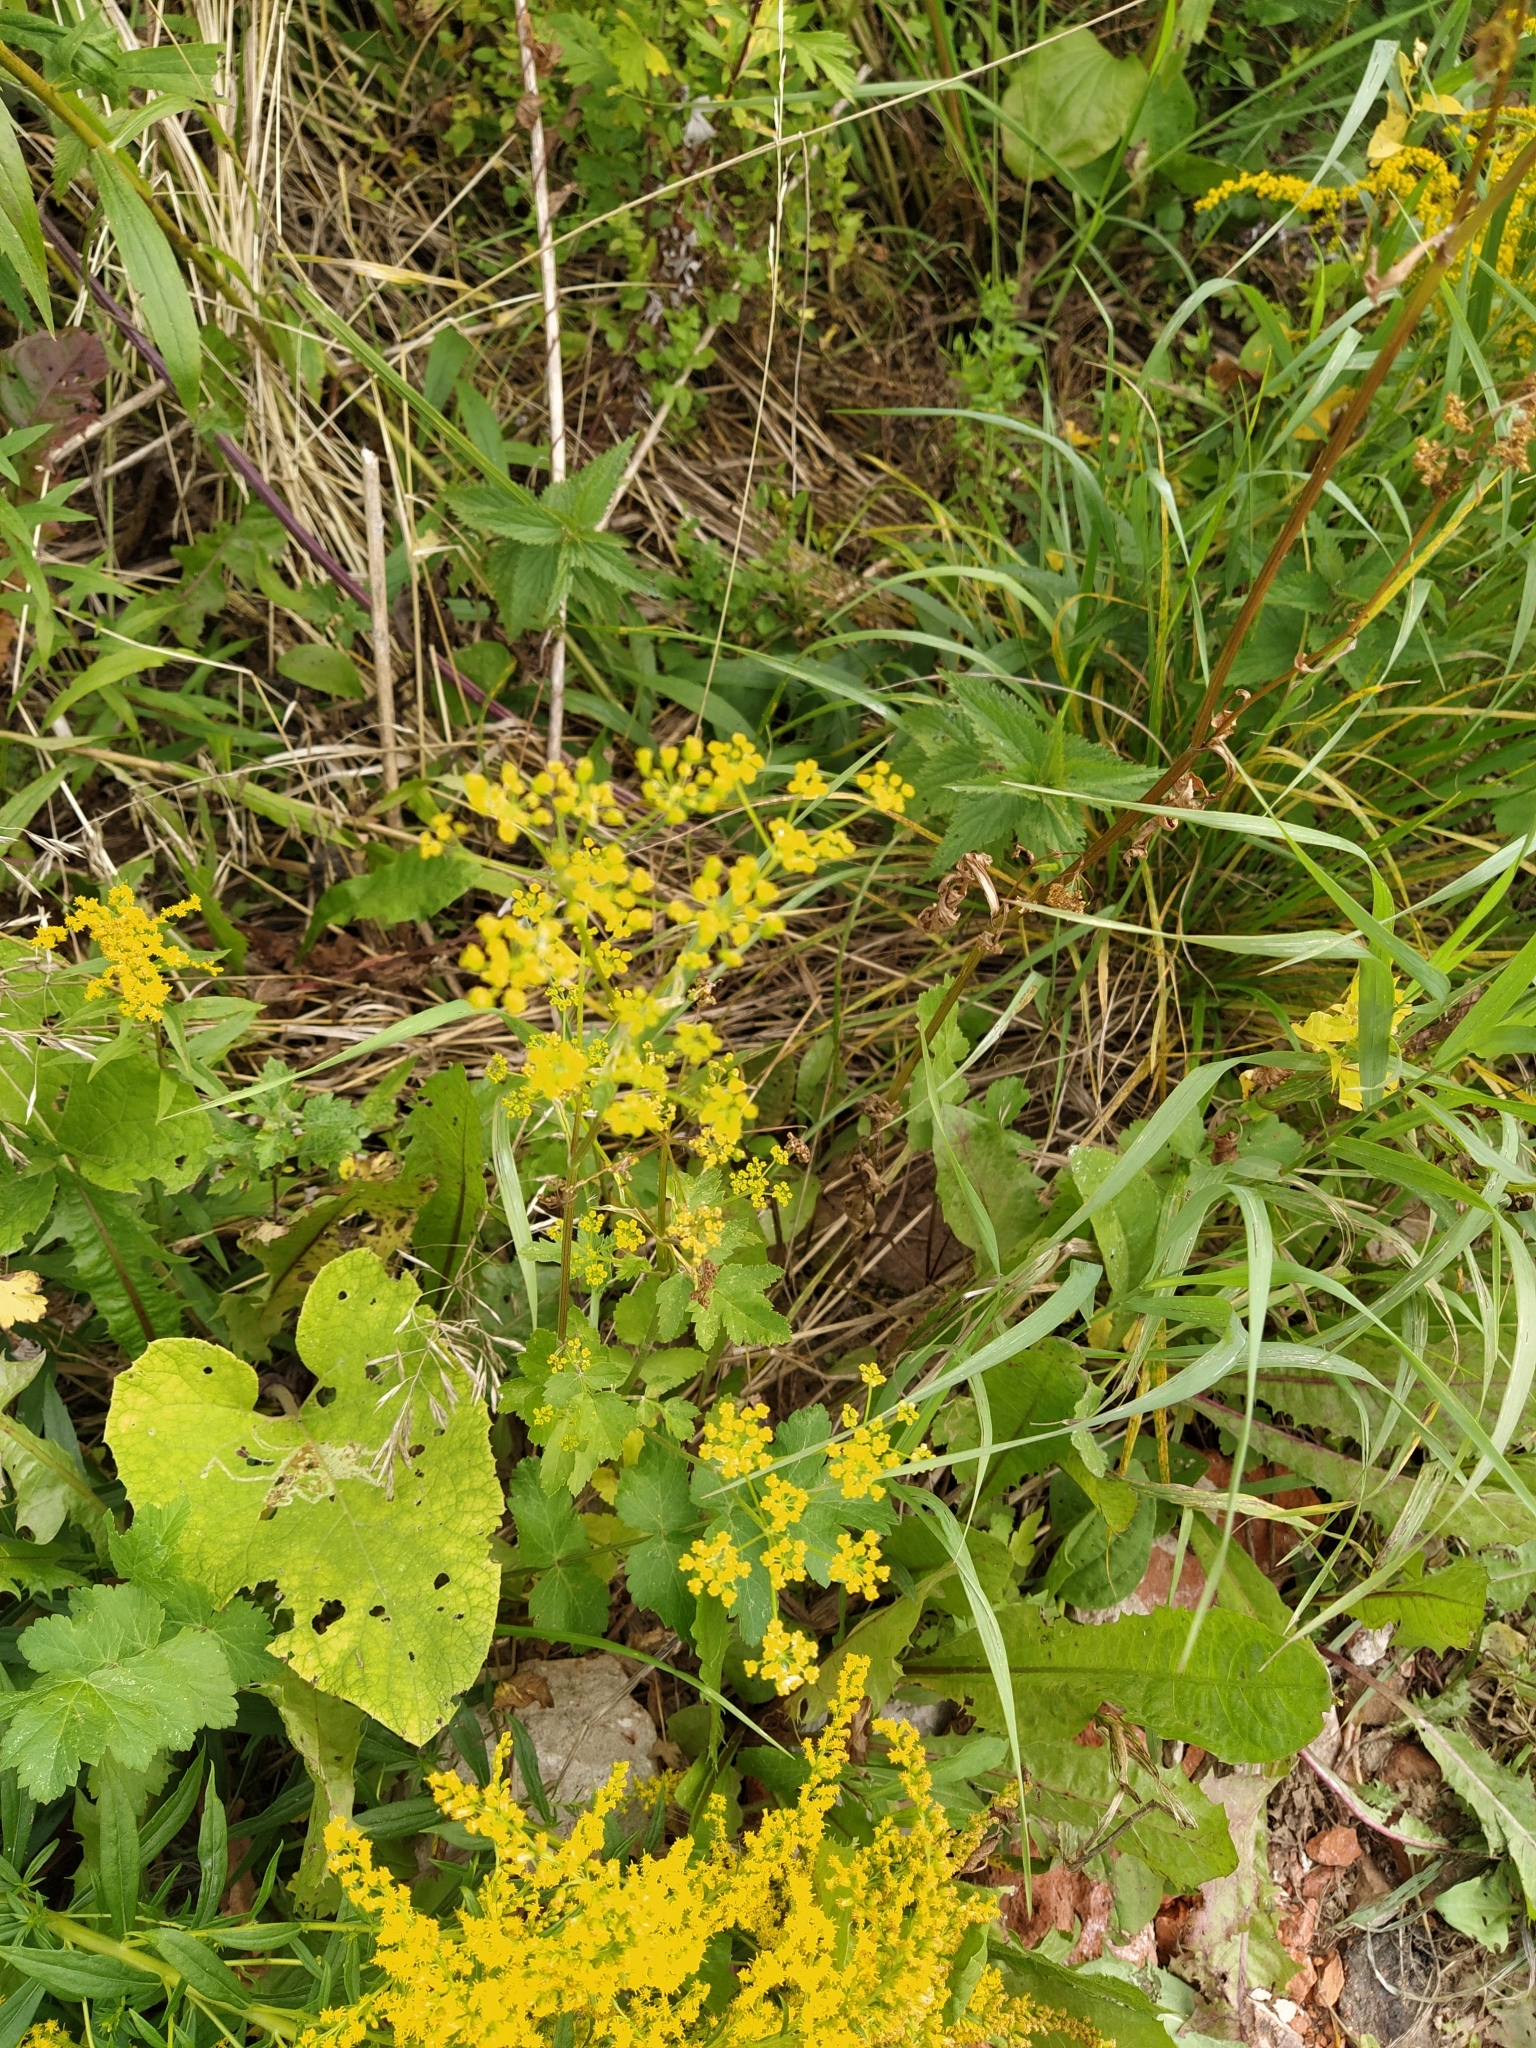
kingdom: Plantae
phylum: Tracheophyta
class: Magnoliopsida
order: Apiales
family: Apiaceae
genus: Pastinaca
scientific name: Pastinaca sativa
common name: Wild parsnip
